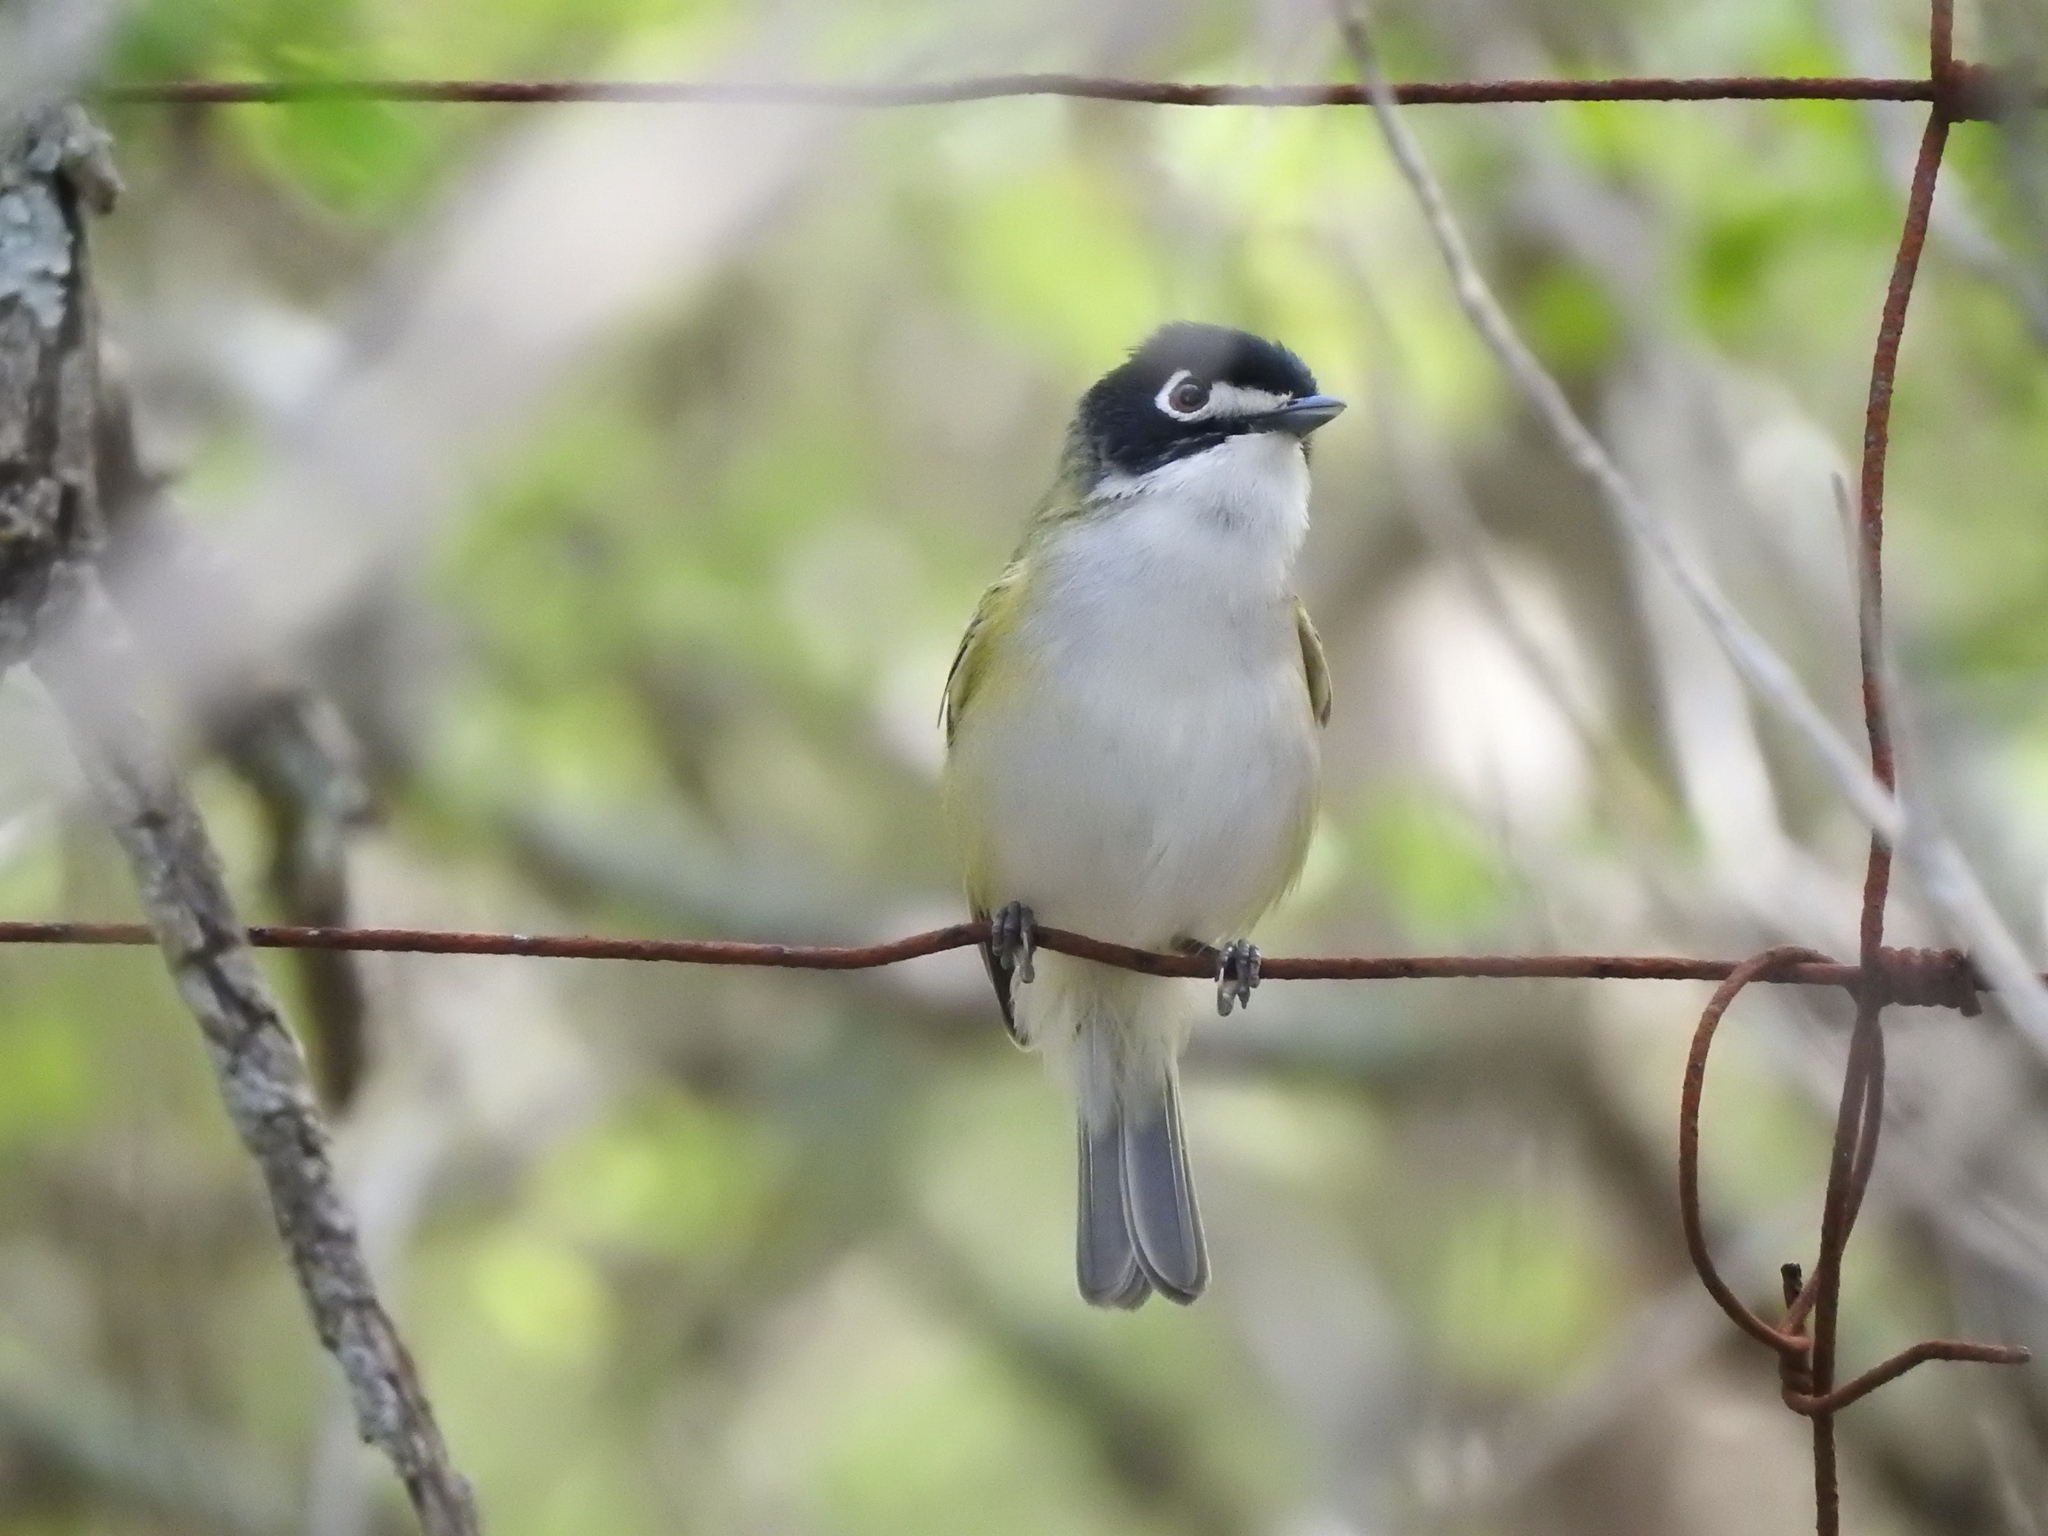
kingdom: Animalia
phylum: Chordata
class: Aves
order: Passeriformes
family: Vireonidae
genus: Vireo
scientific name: Vireo atricapilla
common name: Black-capped vireo
